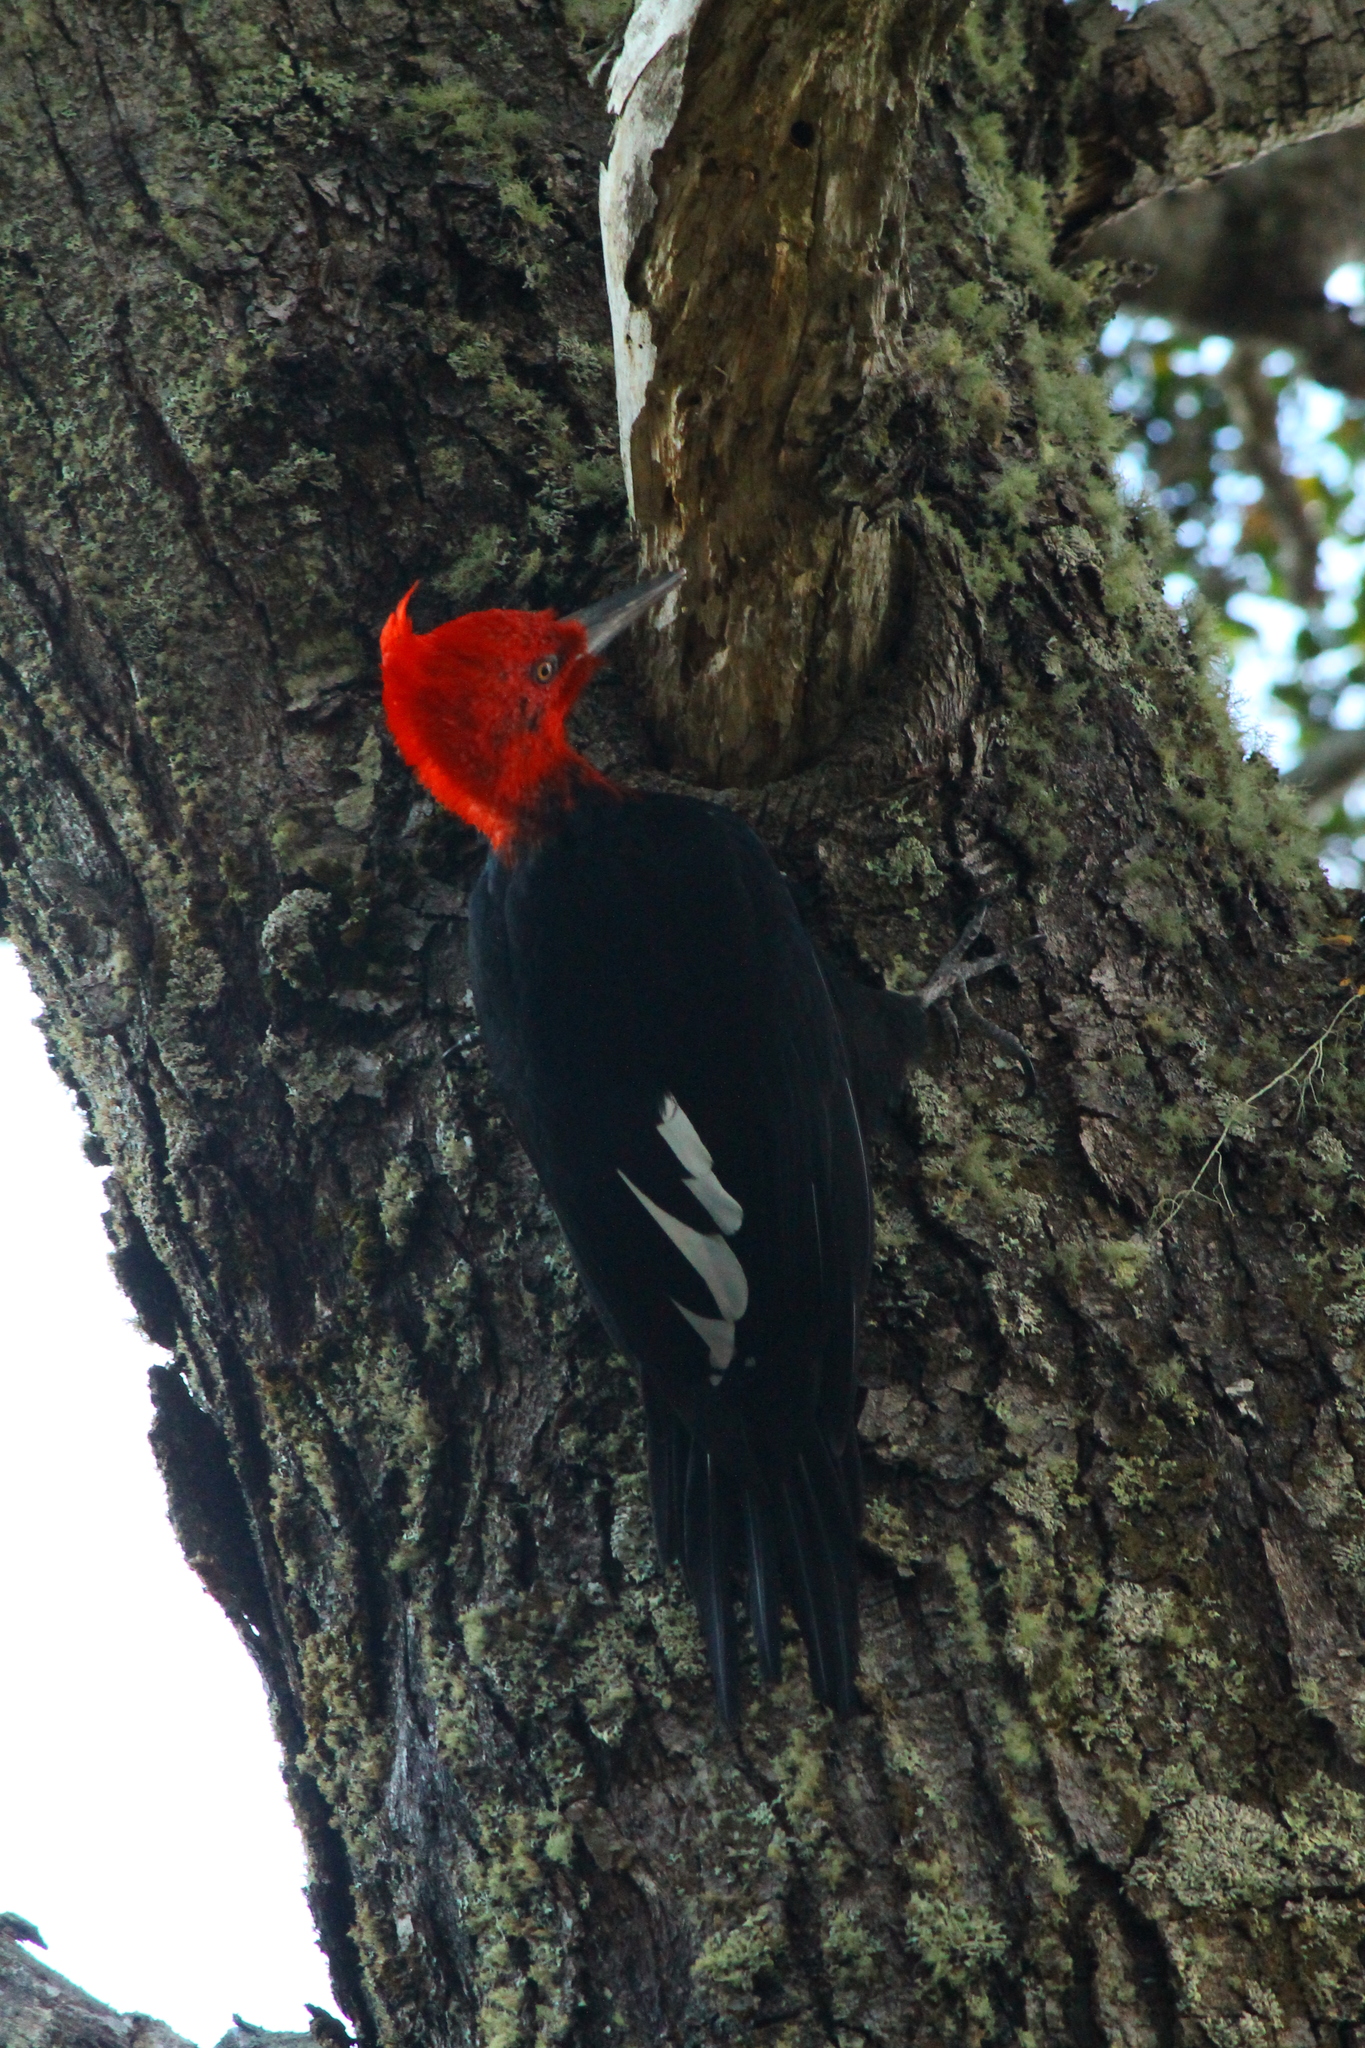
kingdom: Animalia
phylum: Chordata
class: Aves
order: Piciformes
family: Picidae
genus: Campephilus
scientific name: Campephilus magellanicus
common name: Magellanic woodpecker
